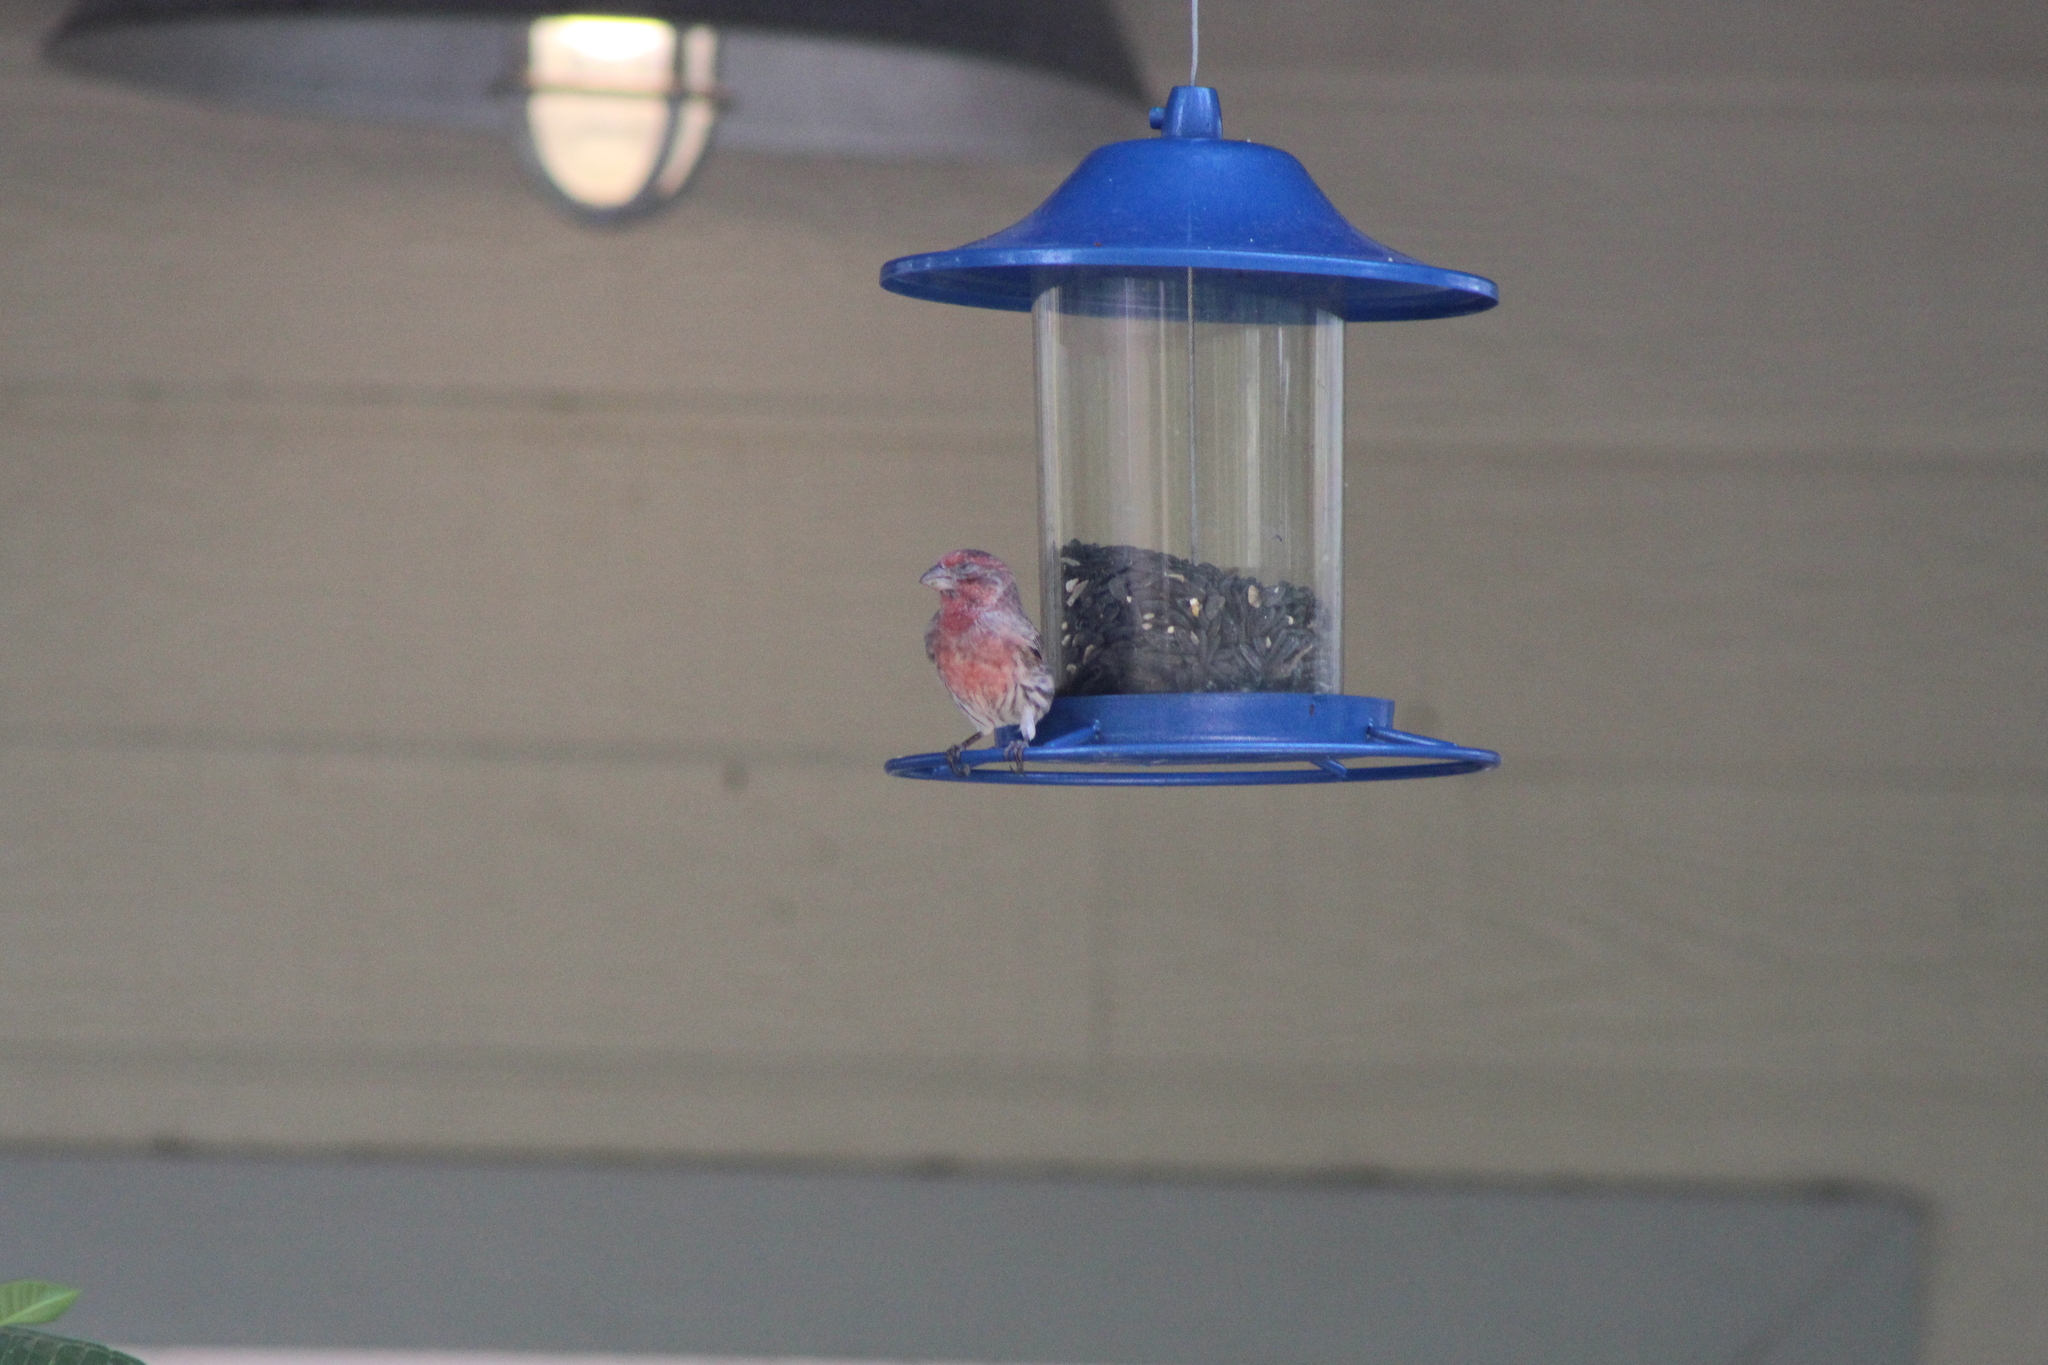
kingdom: Animalia
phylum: Chordata
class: Aves
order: Passeriformes
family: Fringillidae
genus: Haemorhous
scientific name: Haemorhous mexicanus
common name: House finch
